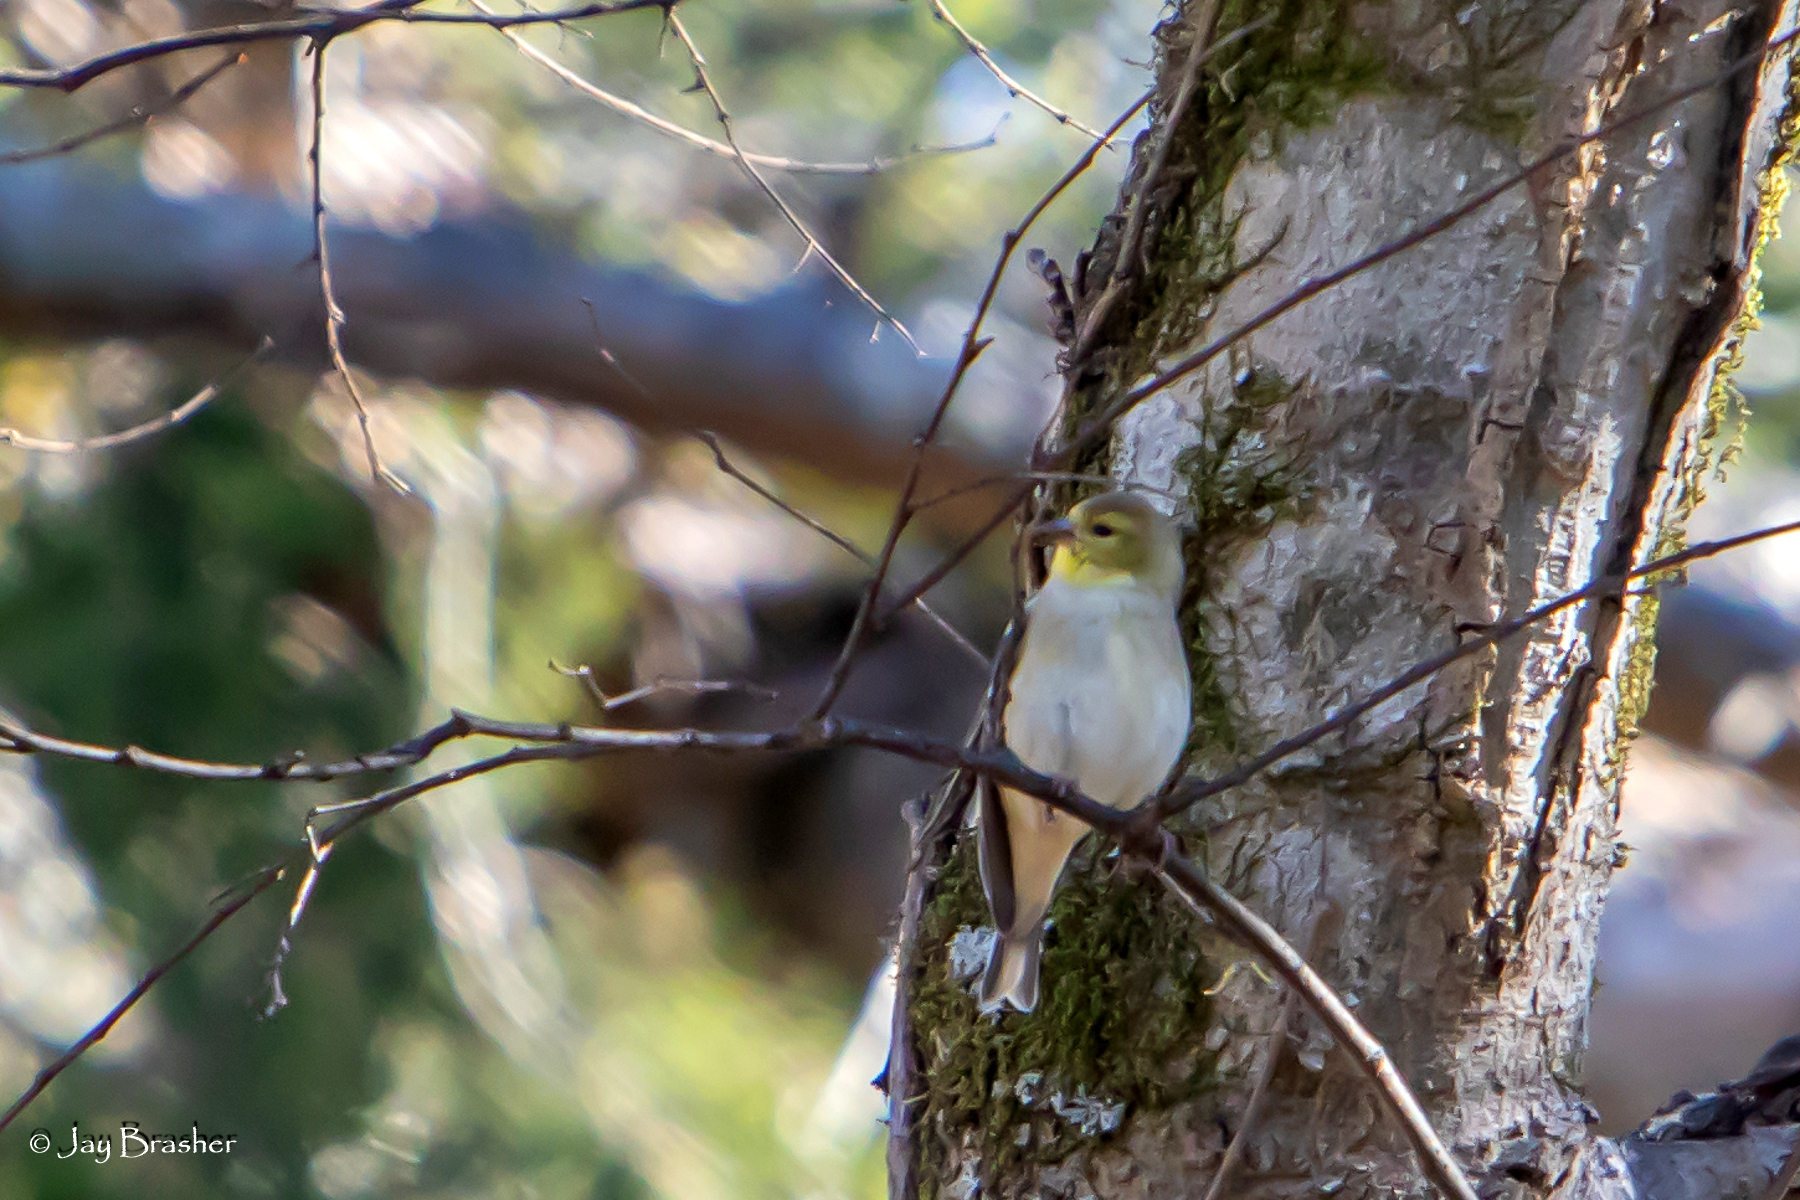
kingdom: Animalia
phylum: Chordata
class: Aves
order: Passeriformes
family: Fringillidae
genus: Spinus
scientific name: Spinus tristis
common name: American goldfinch
